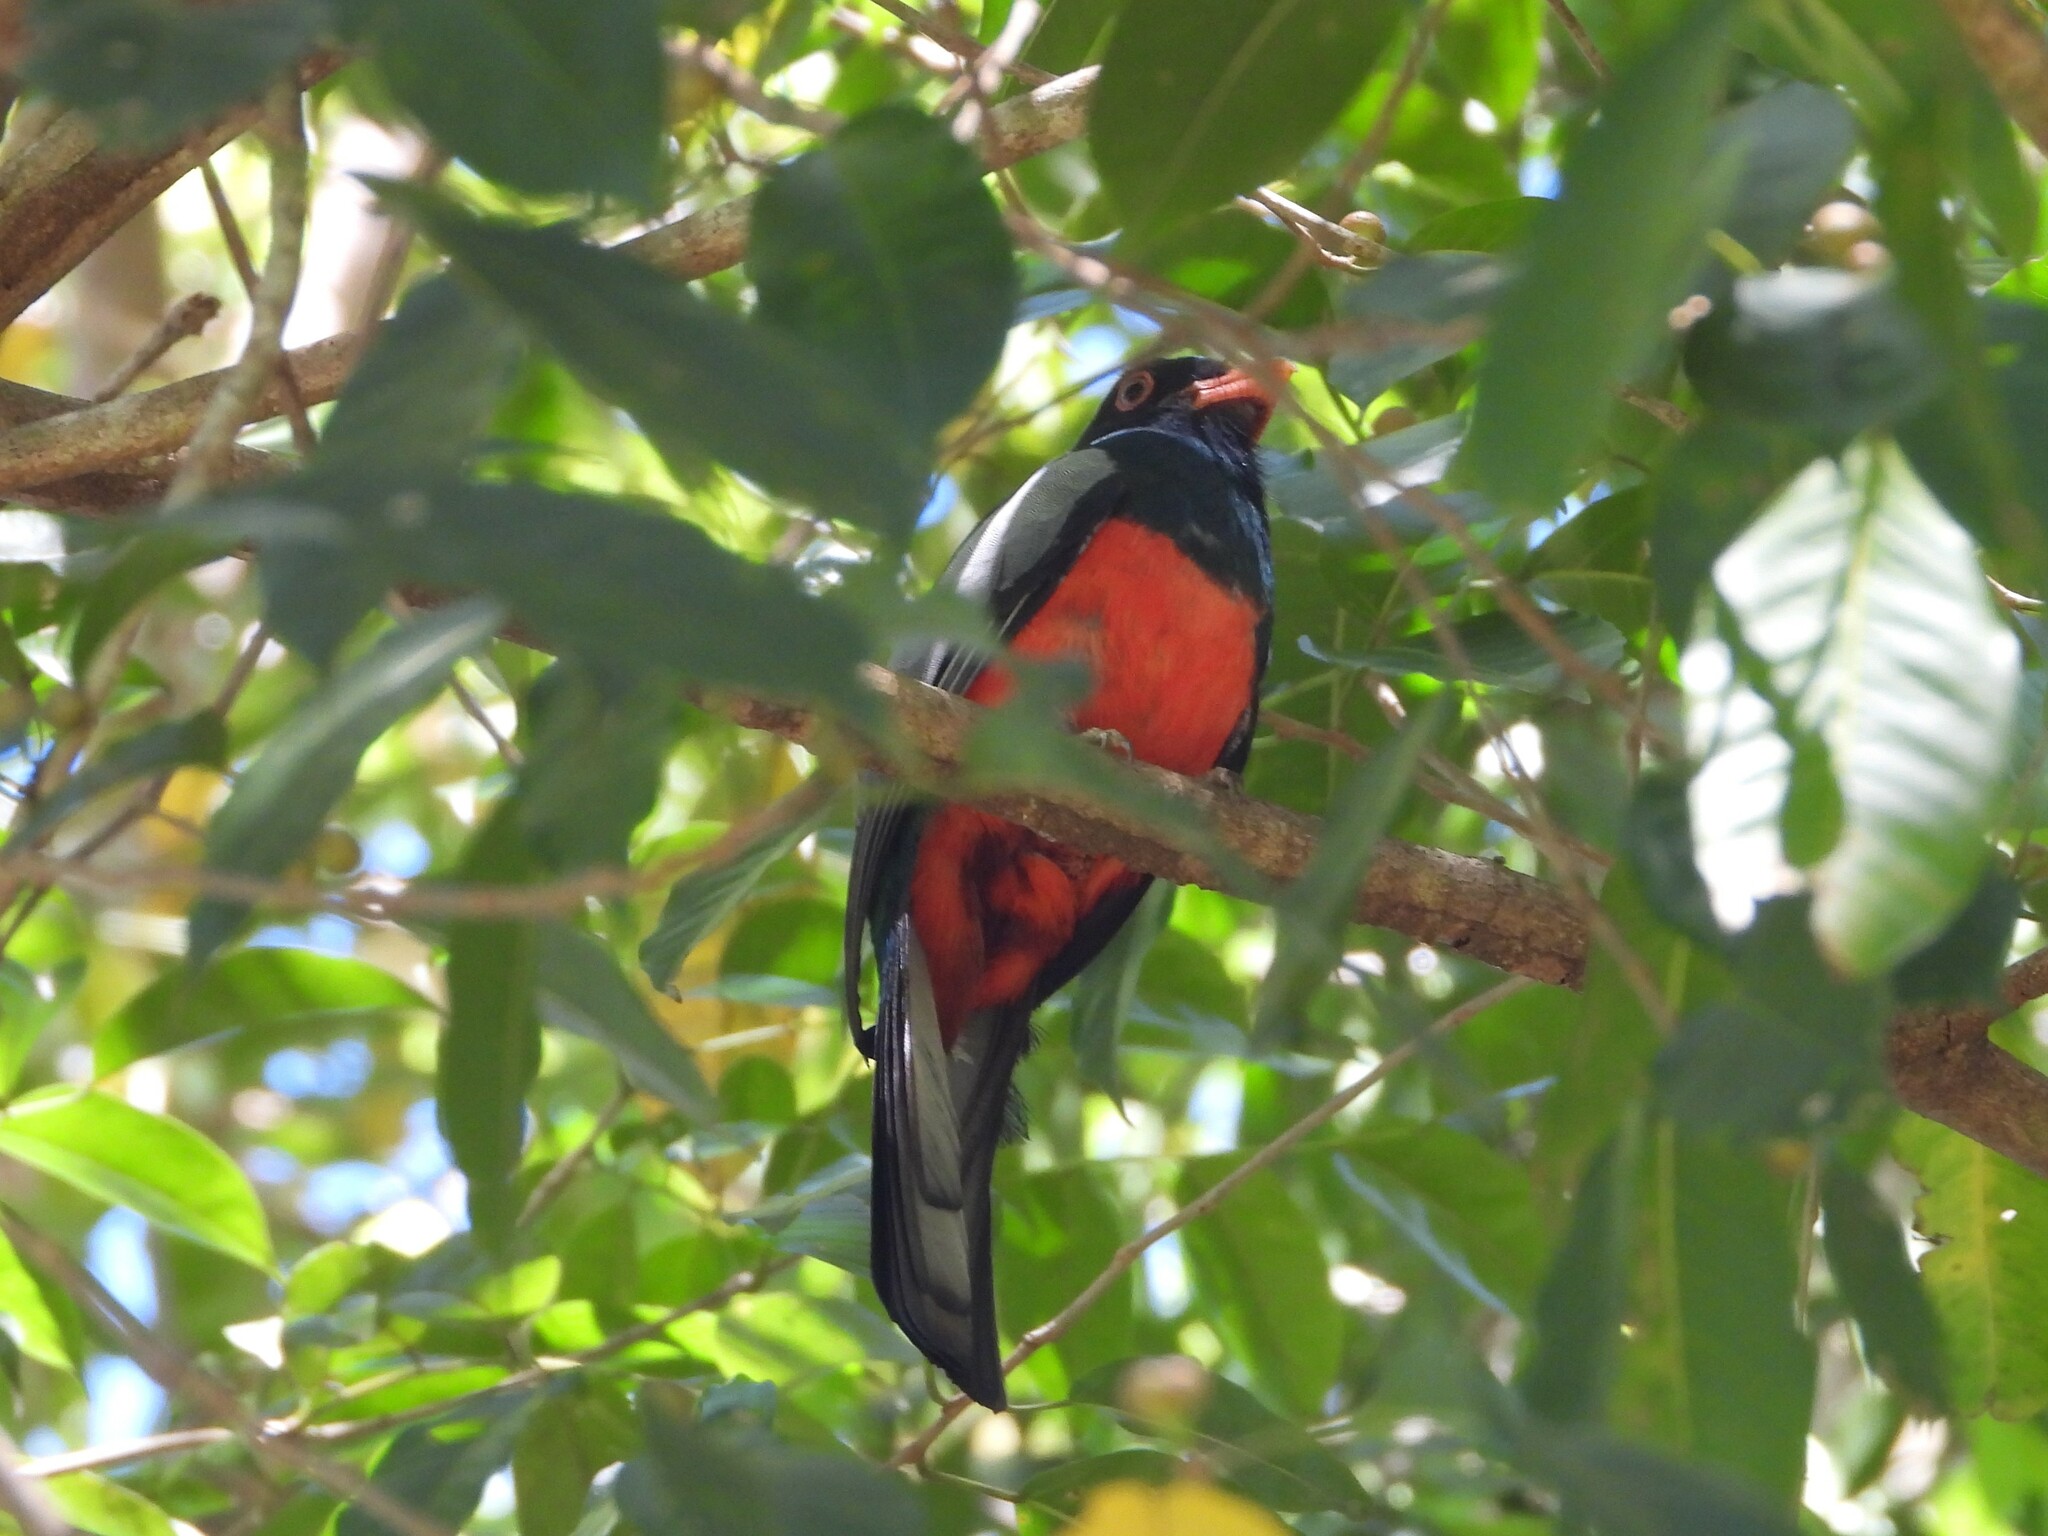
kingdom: Animalia
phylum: Chordata
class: Aves
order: Trogoniformes
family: Trogonidae
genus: Trogon
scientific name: Trogon massena
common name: Slaty-tailed trogon
